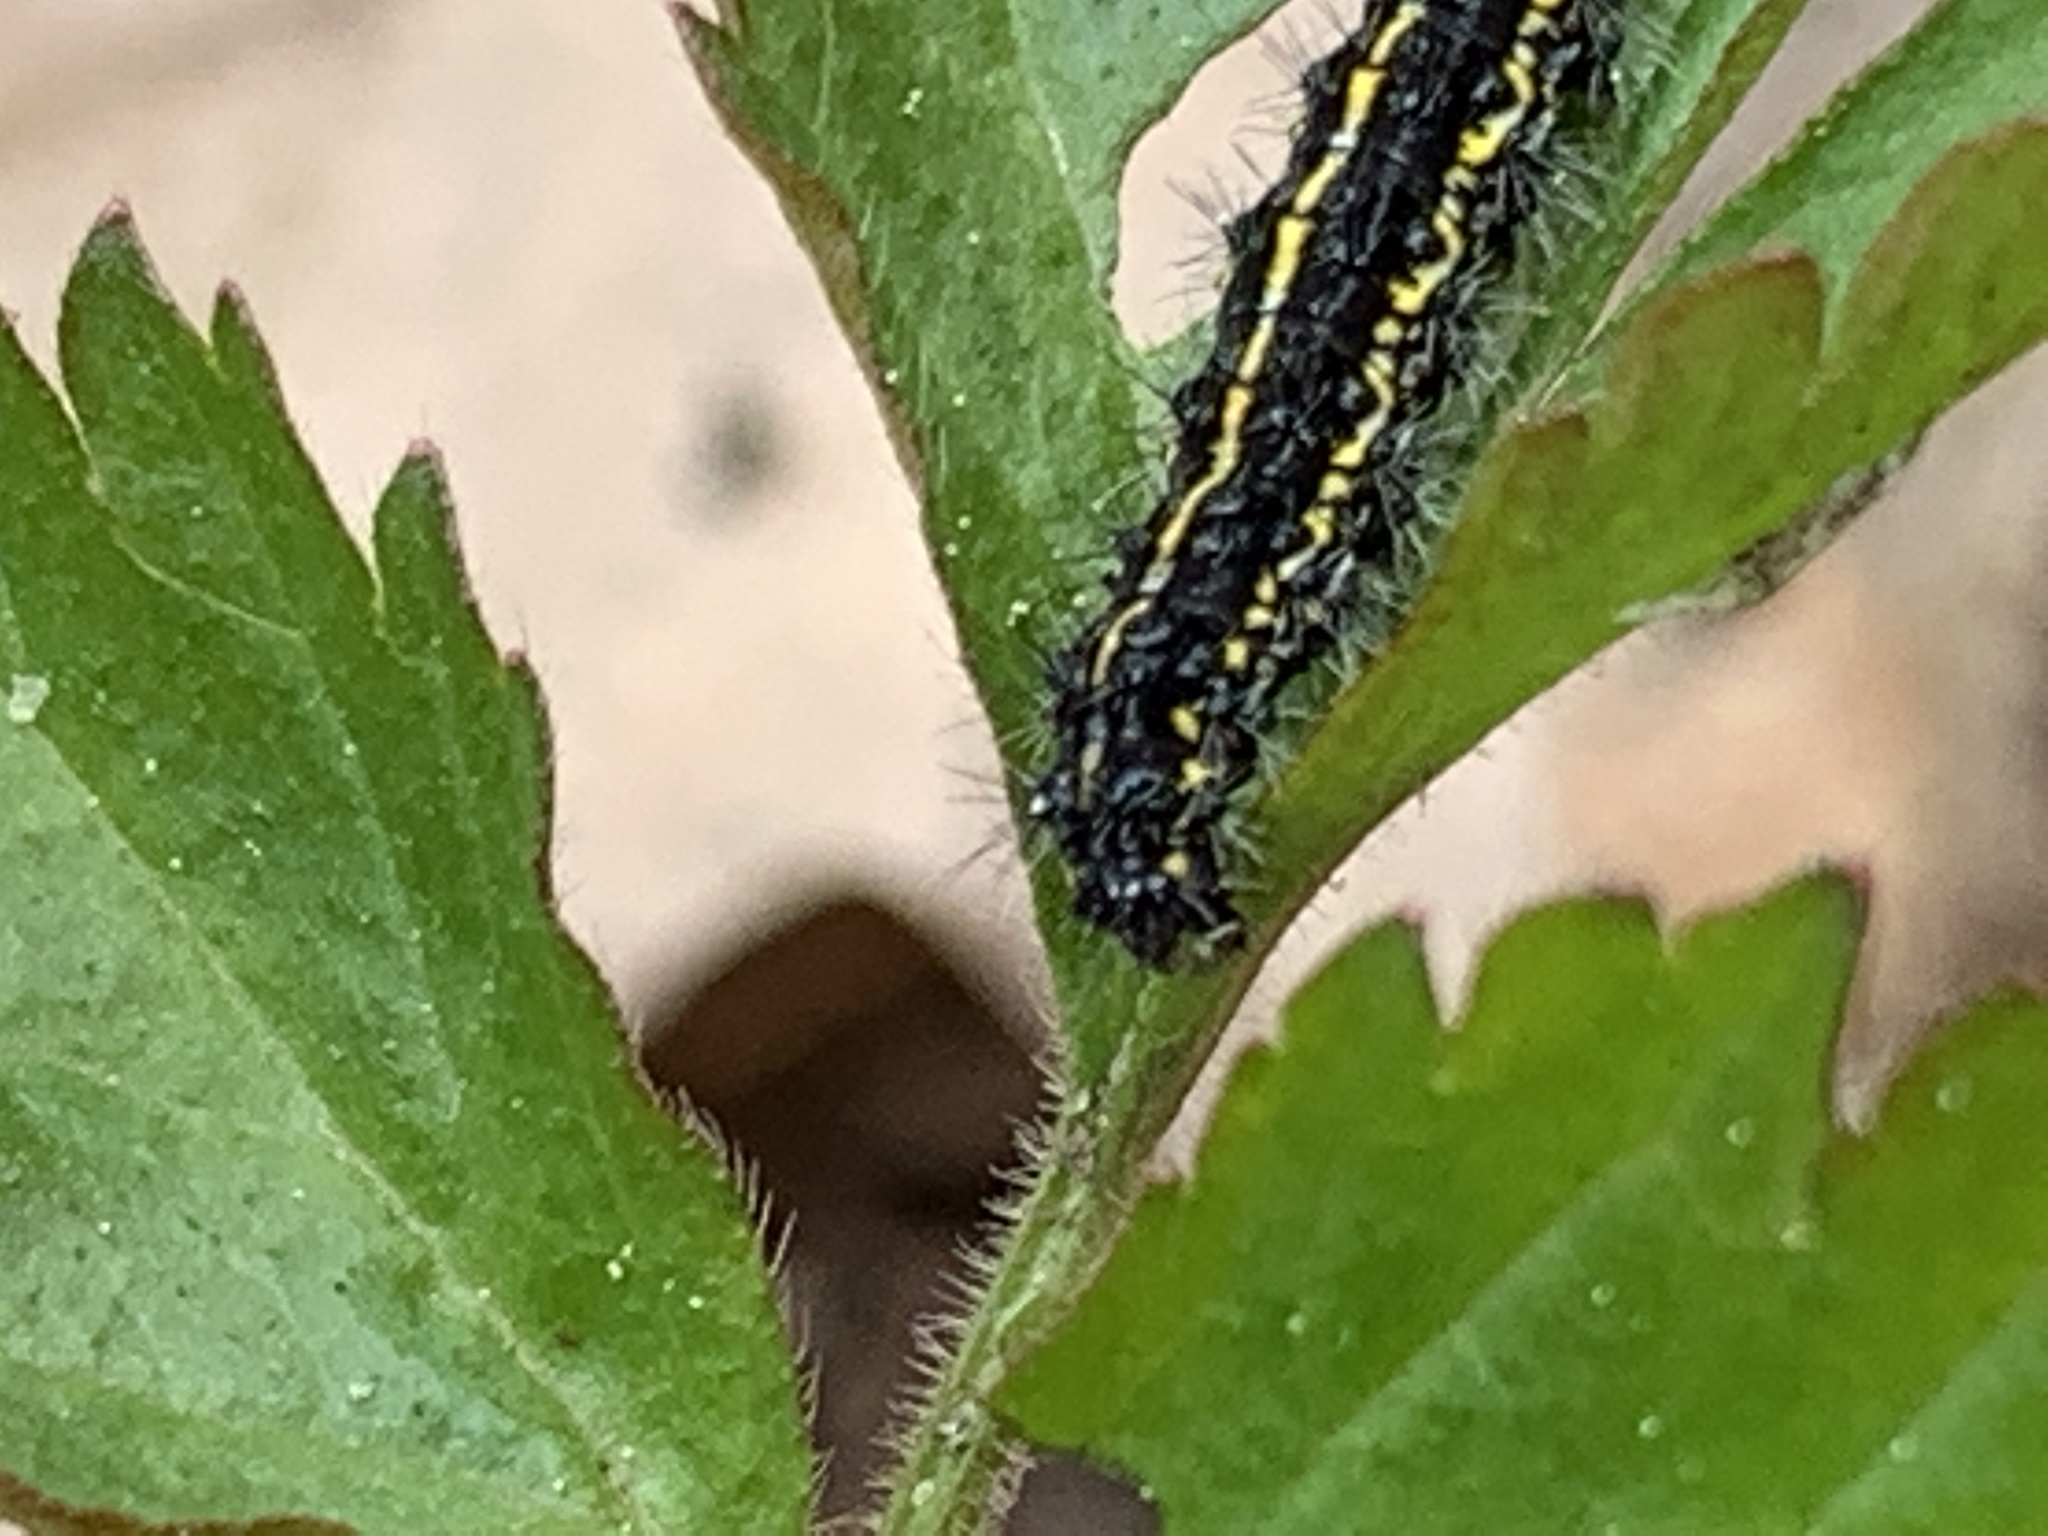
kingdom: Animalia
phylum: Arthropoda
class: Insecta
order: Lepidoptera
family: Erebidae
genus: Haploa
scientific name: Haploa
